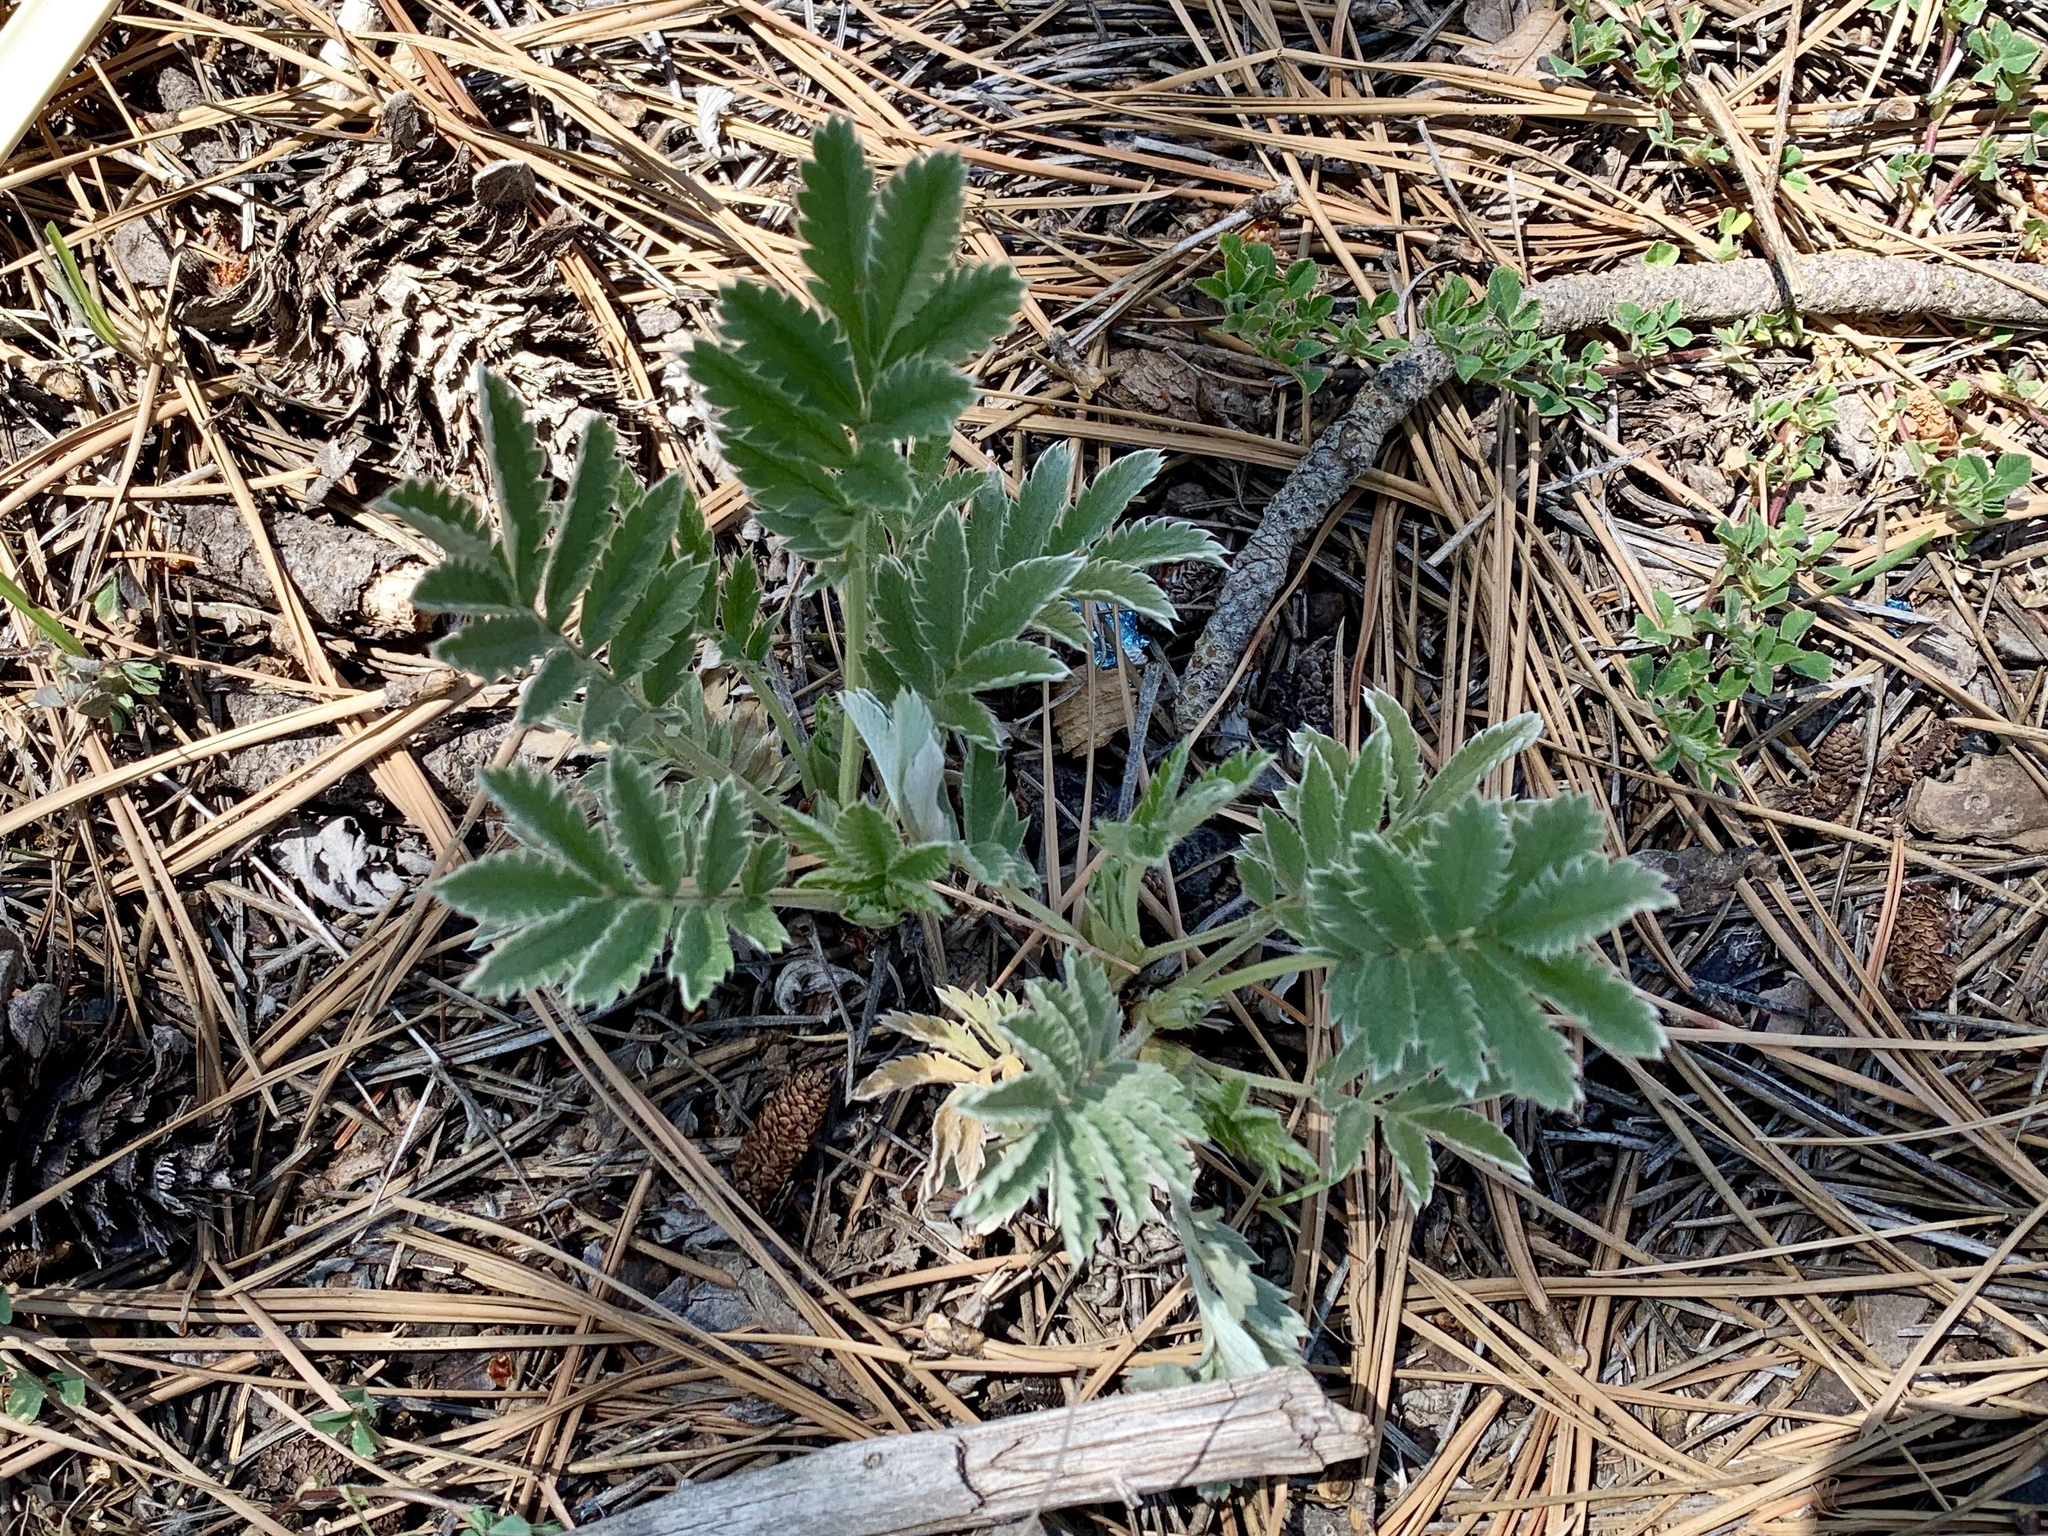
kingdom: Plantae
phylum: Tracheophyta
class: Magnoliopsida
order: Rosales
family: Rosaceae
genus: Potentilla
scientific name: Potentilla hippiana
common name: Woolly cinquefoil
